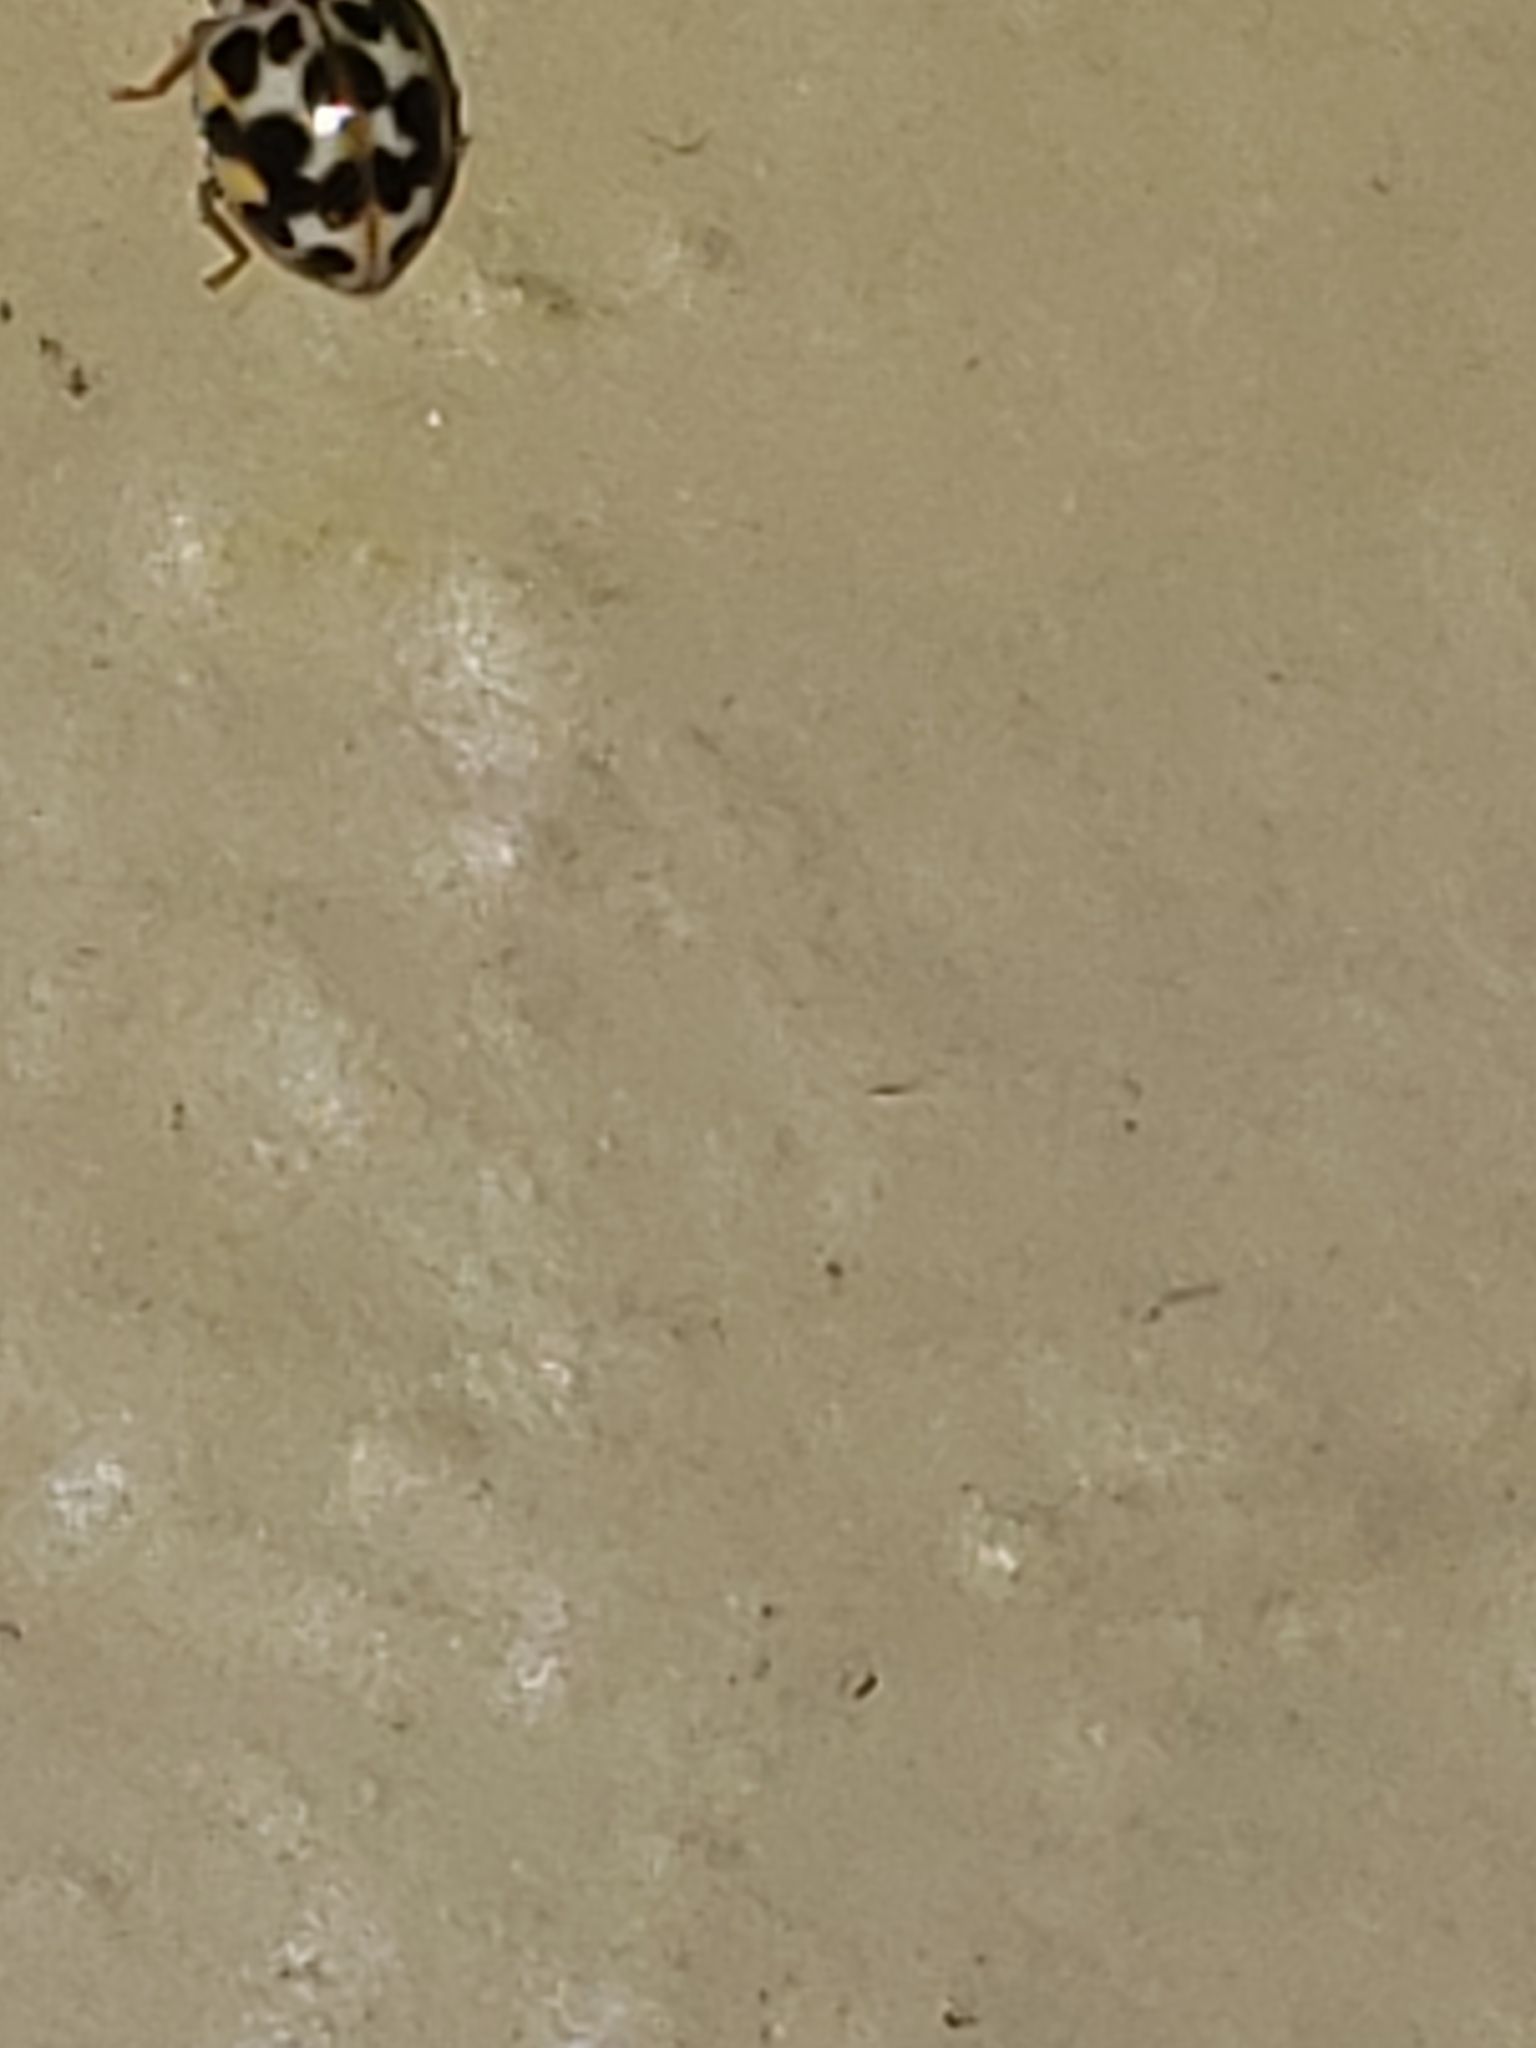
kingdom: Animalia
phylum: Arthropoda
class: Insecta
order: Coleoptera
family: Coccinellidae
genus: Psyllobora
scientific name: Psyllobora vigintimaculata
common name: Ladybird beetle
